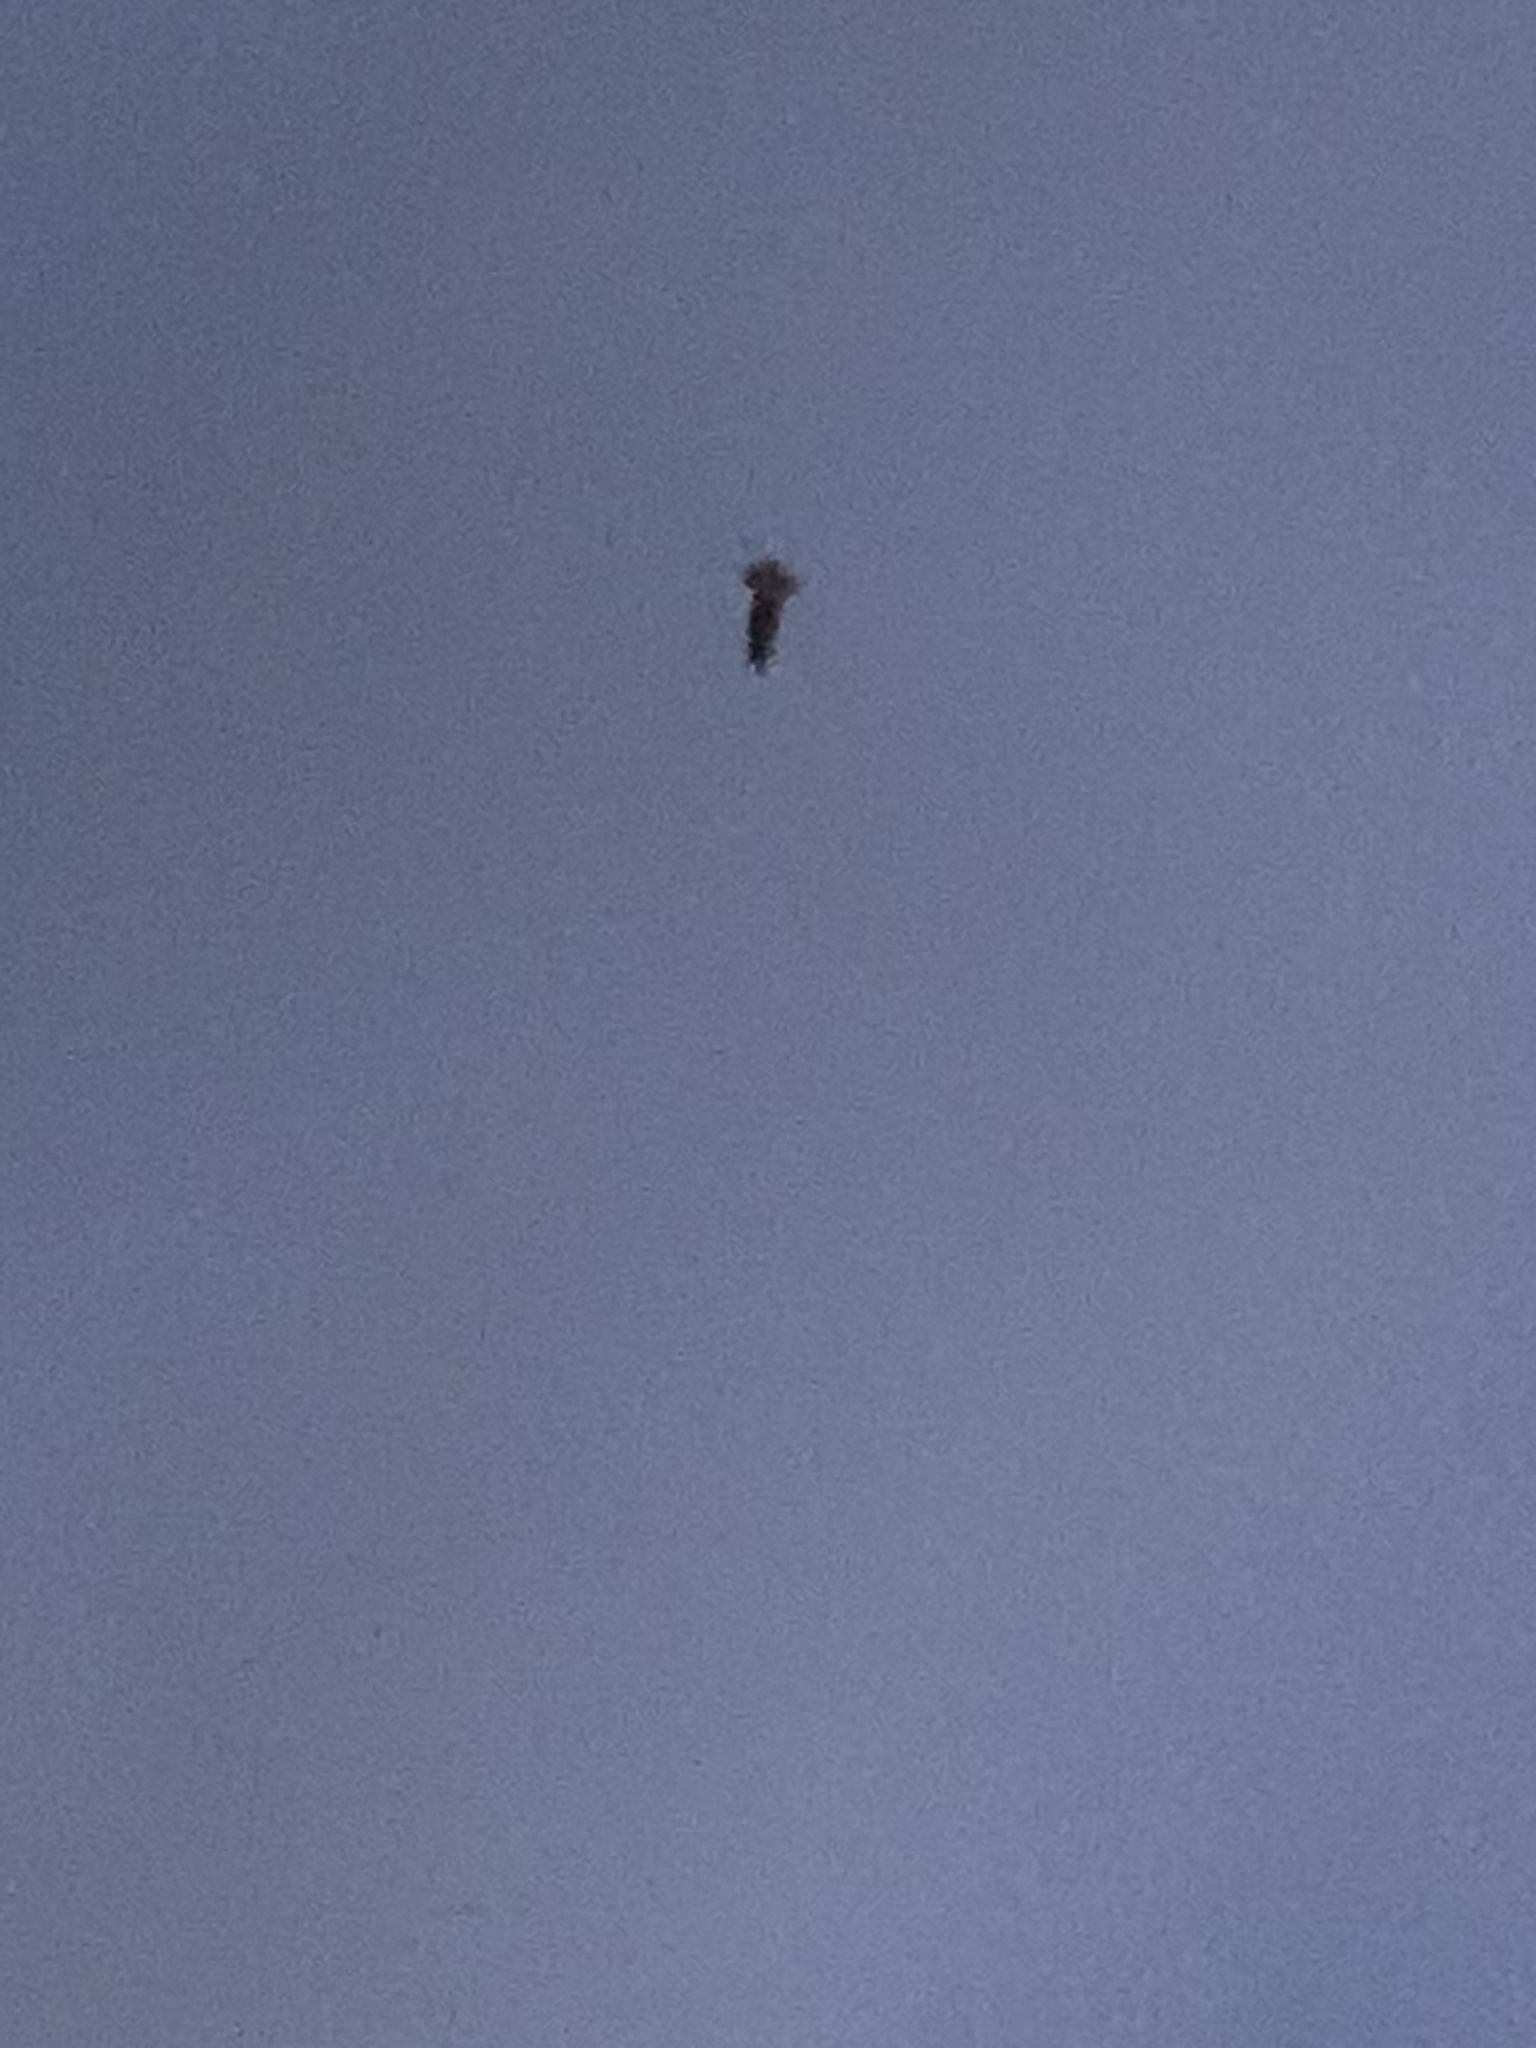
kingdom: Animalia
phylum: Chordata
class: Aves
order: Strigiformes
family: Strigidae
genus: Asio
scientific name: Asio flammeus
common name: Short-eared owl
